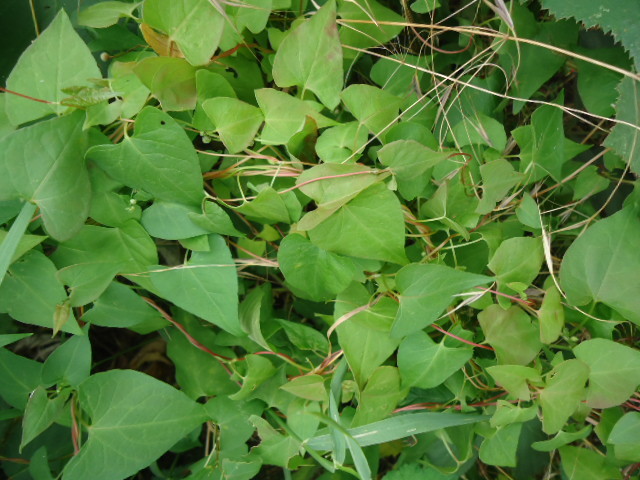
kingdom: Plantae
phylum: Tracheophyta
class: Magnoliopsida
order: Caryophyllales
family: Polygonaceae
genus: Fallopia
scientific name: Fallopia convolvulus
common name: Black bindweed
